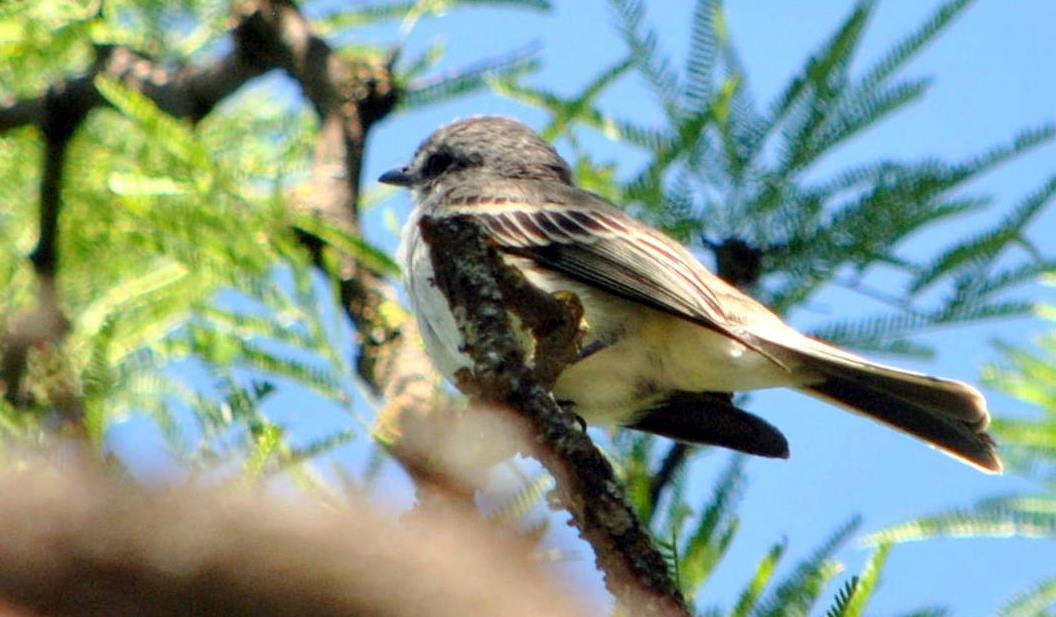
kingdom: Animalia
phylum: Chordata
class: Aves
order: Passeriformes
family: Tyrannidae
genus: Suiriri
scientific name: Suiriri suiriri
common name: Suiriri flycatcher
